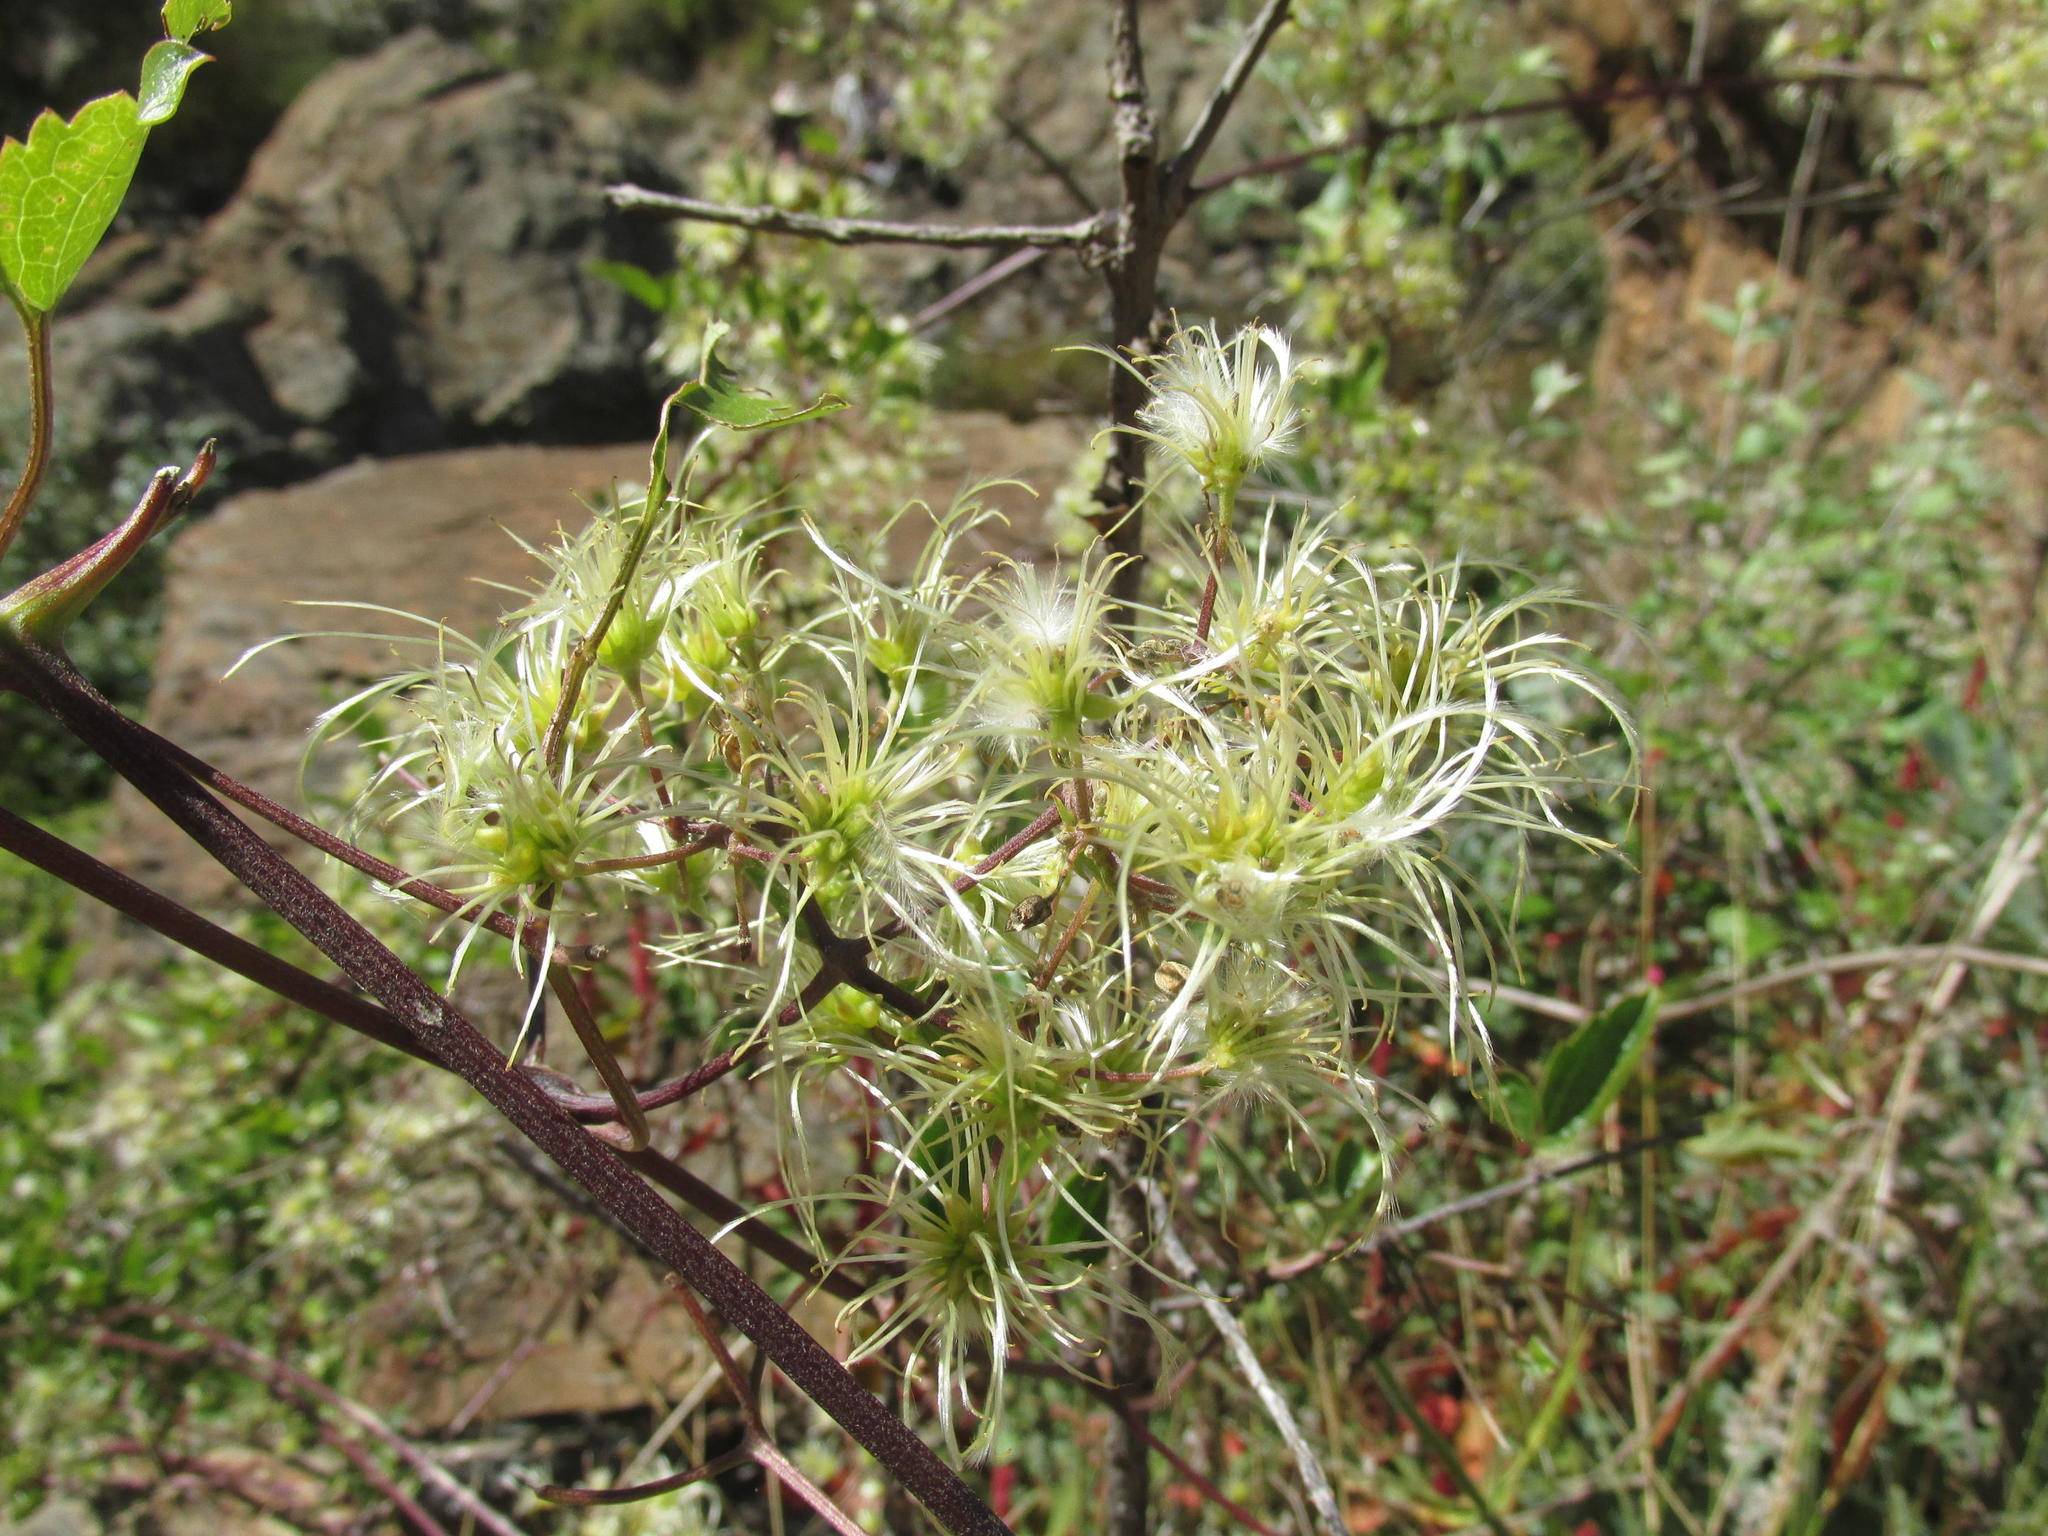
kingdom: Plantae
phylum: Tracheophyta
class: Magnoliopsida
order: Ranunculales
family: Ranunculaceae
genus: Clematis
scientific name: Clematis brachiata
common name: Traveler's-joy
